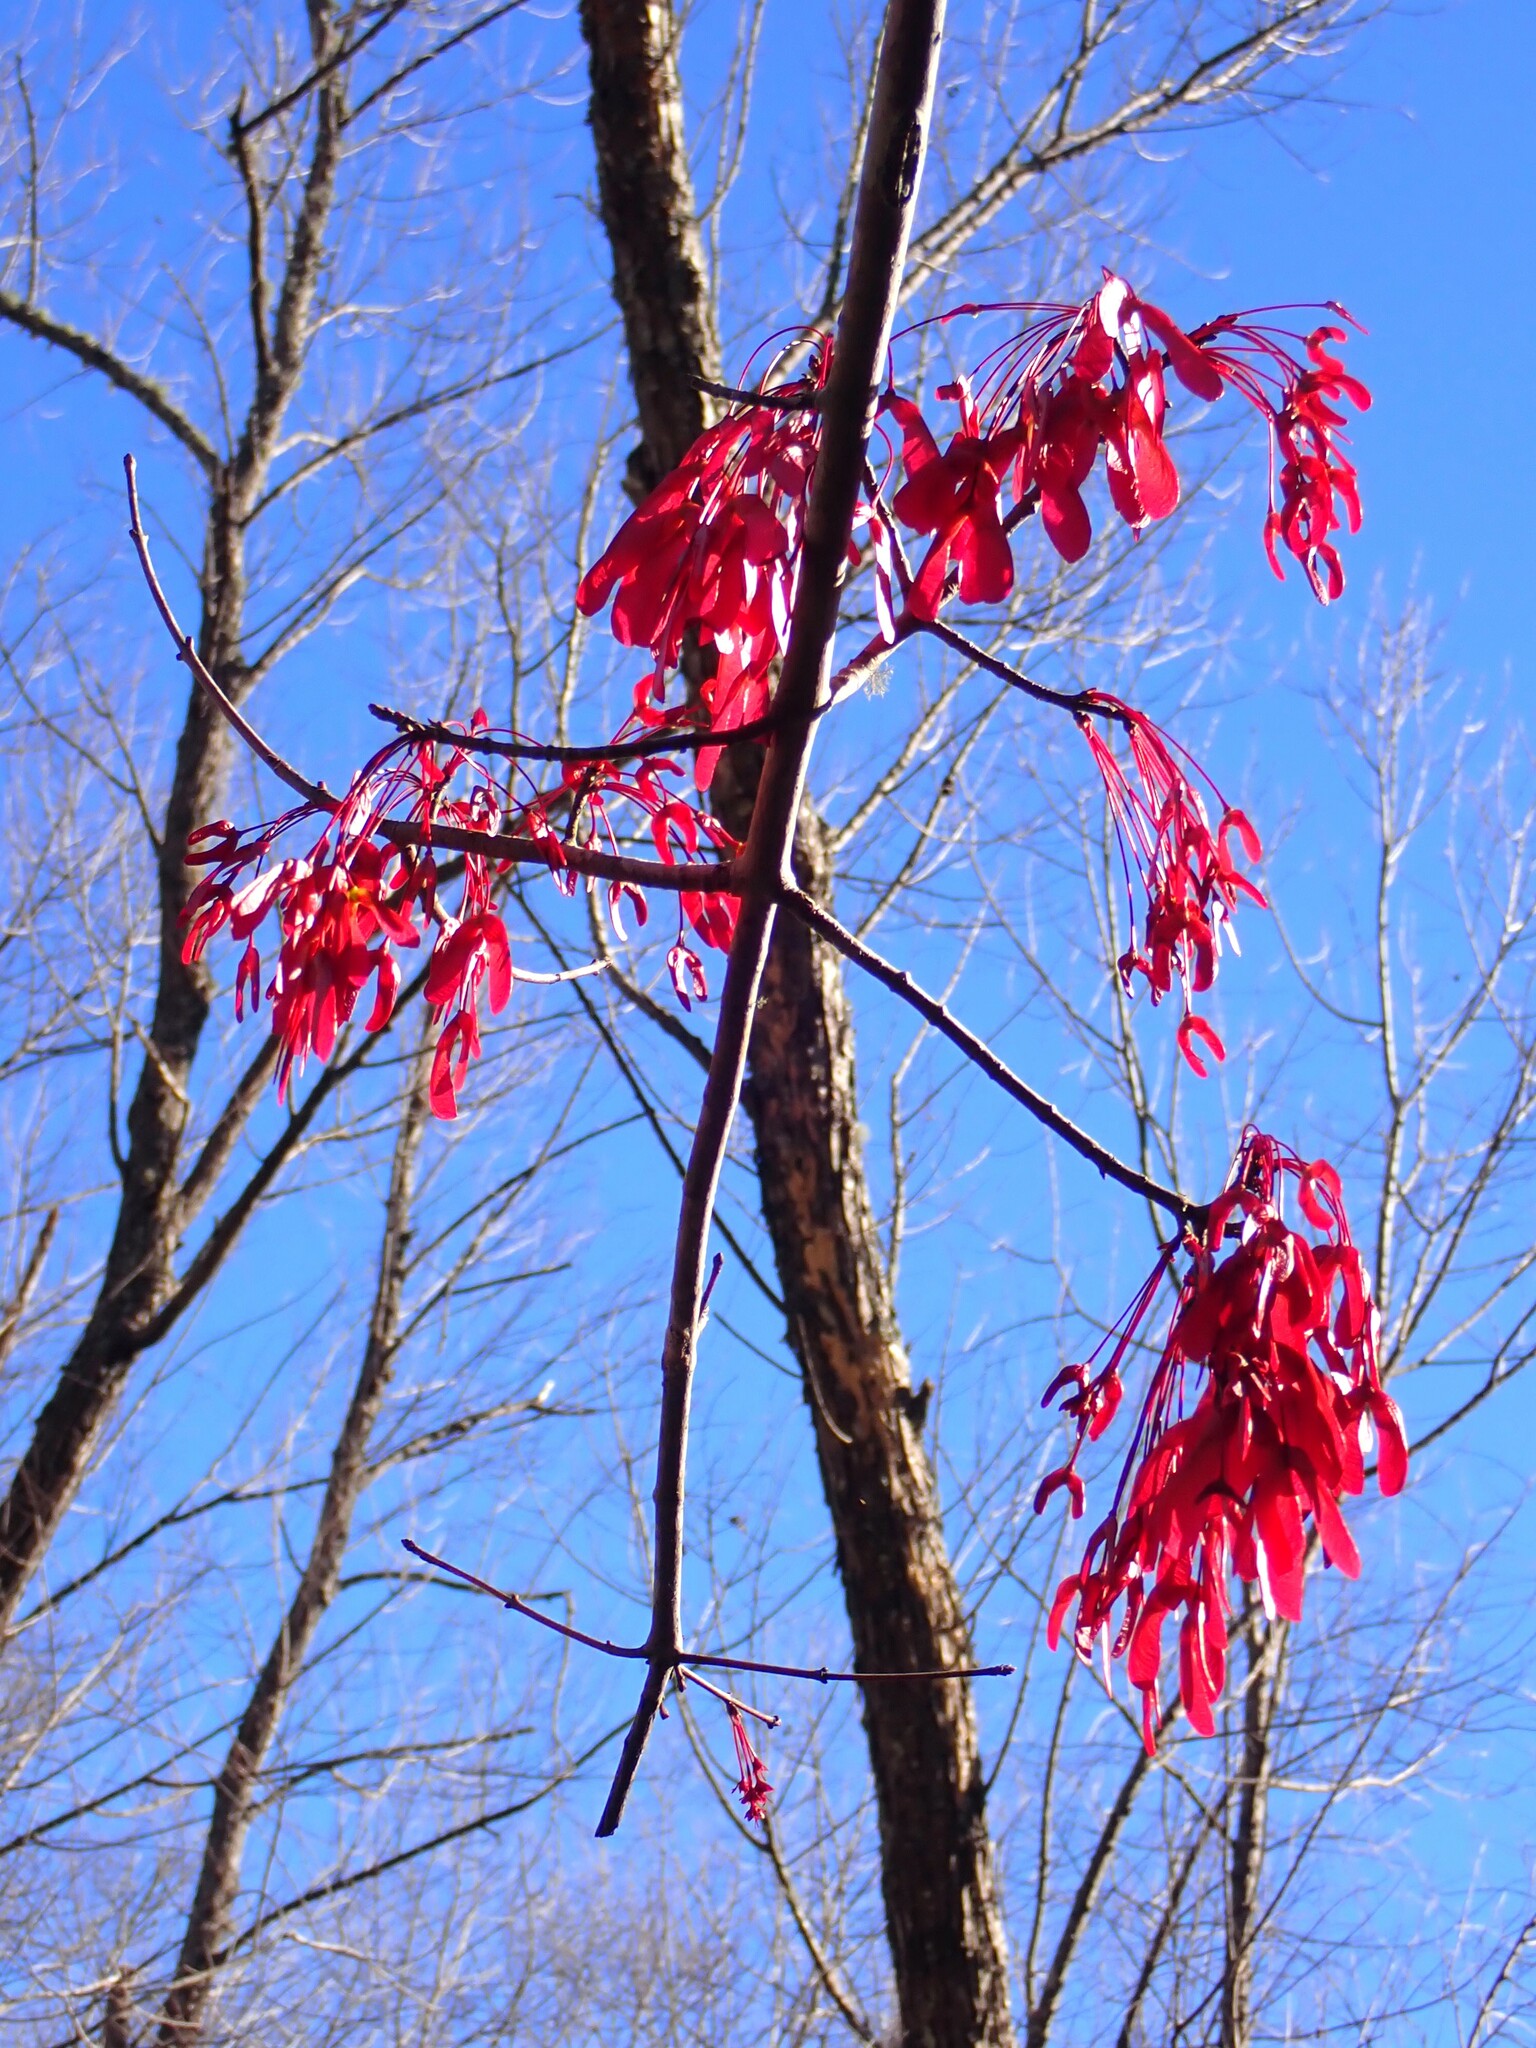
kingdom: Plantae
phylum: Tracheophyta
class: Magnoliopsida
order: Sapindales
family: Sapindaceae
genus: Acer
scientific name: Acer rubrum
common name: Red maple
